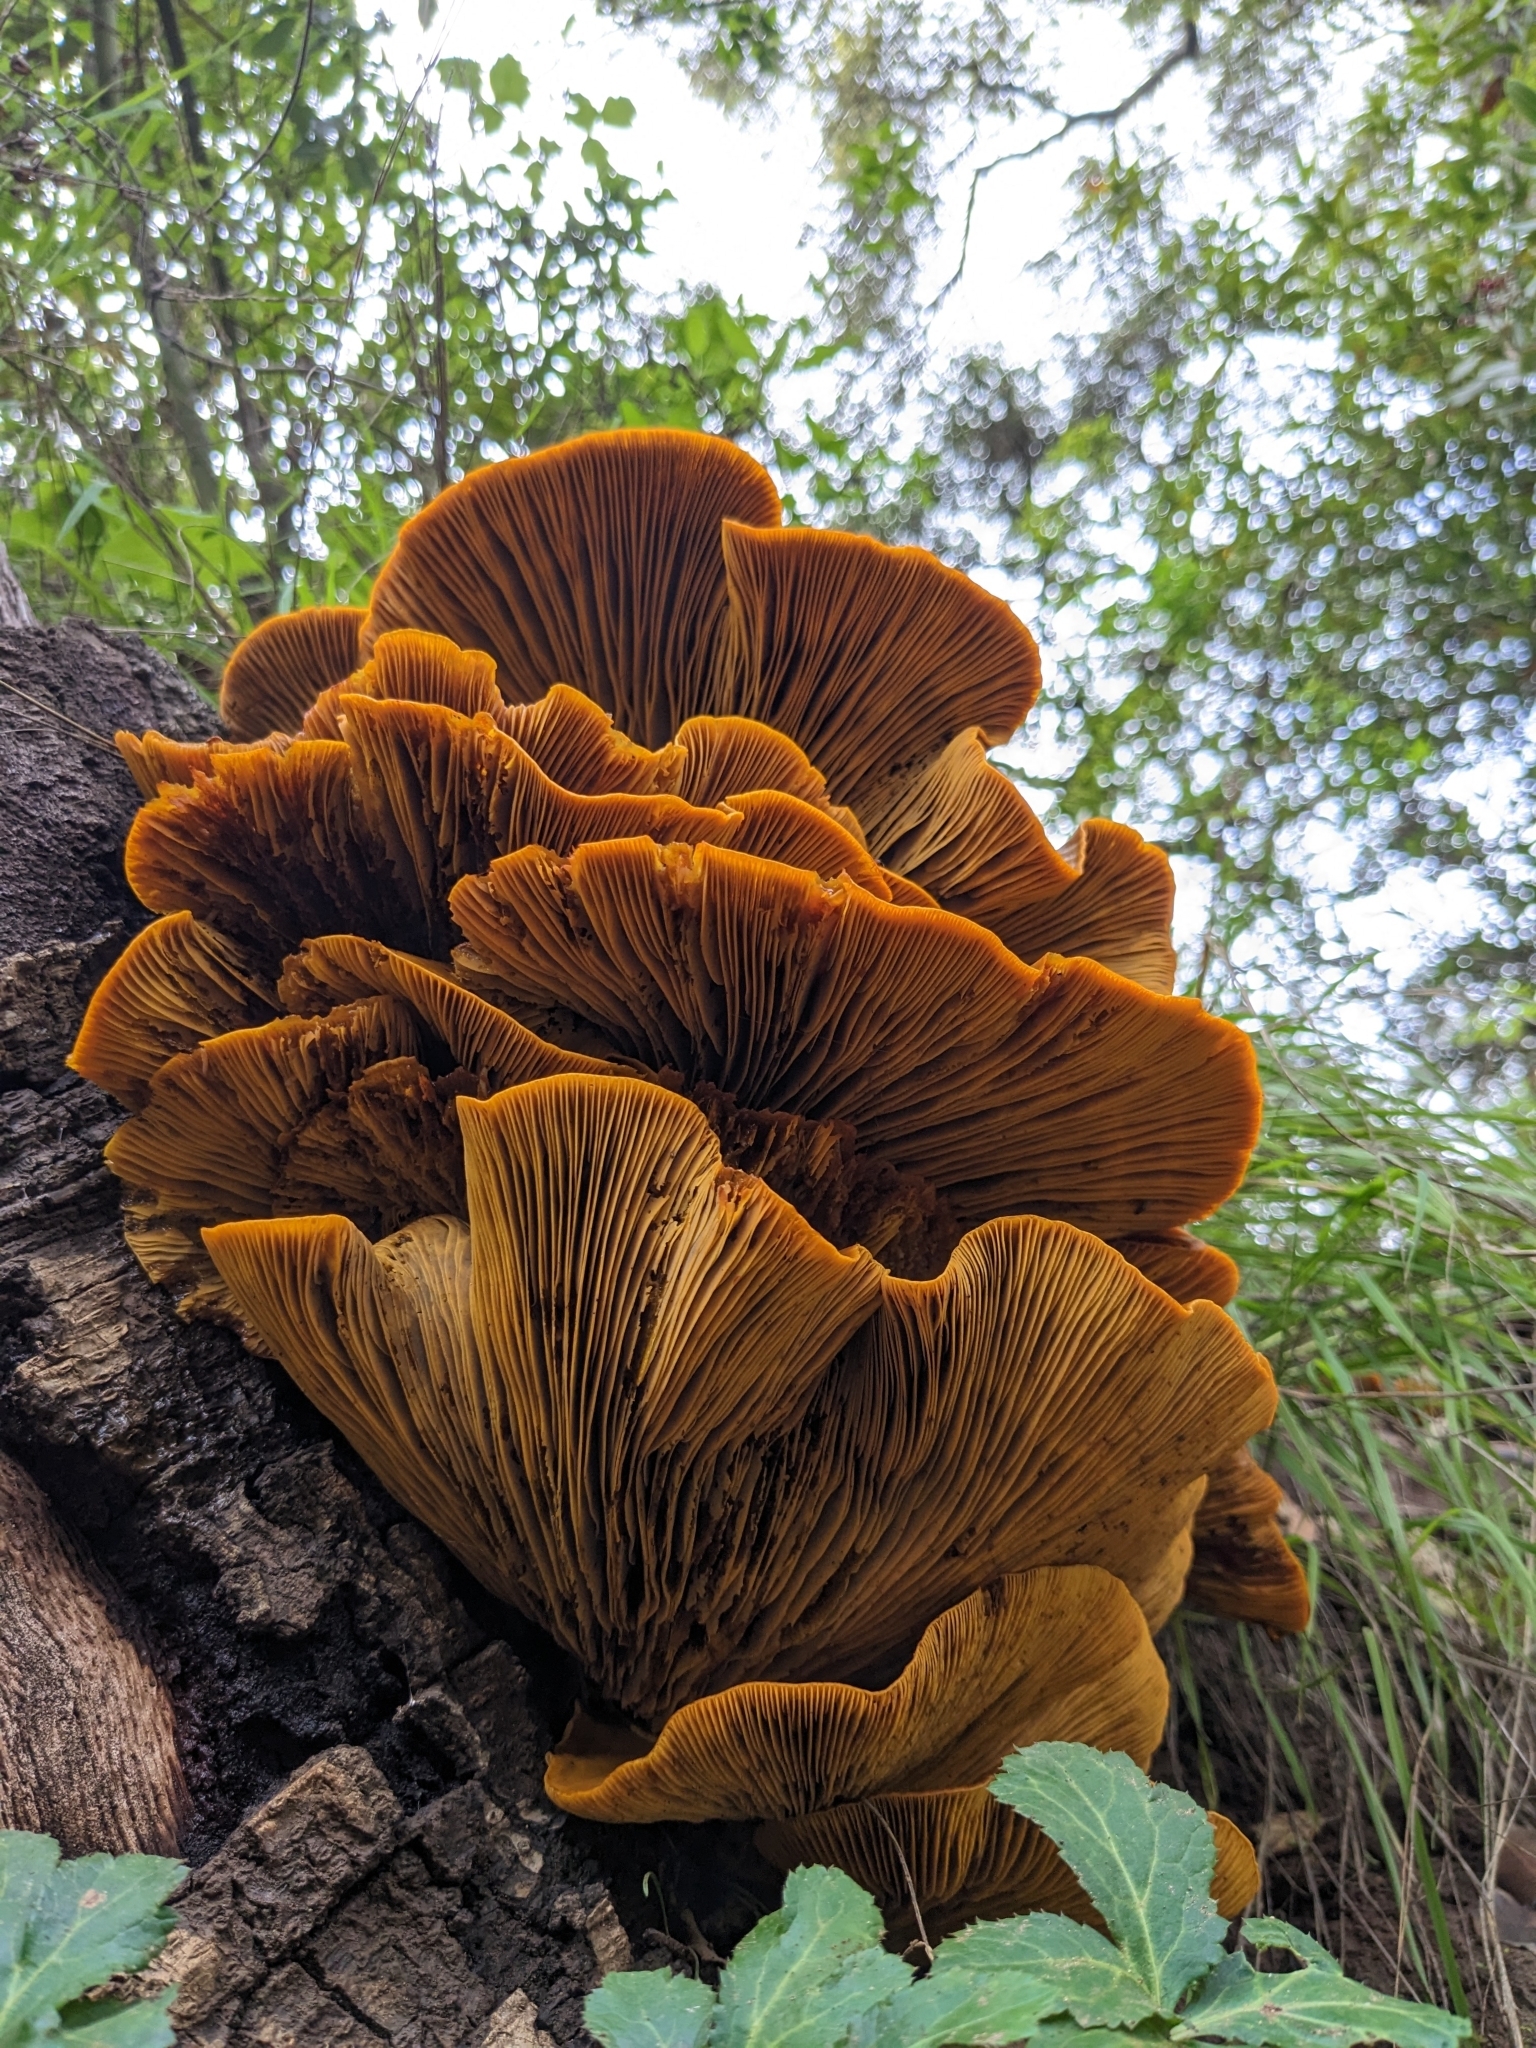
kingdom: Fungi
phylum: Basidiomycota
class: Agaricomycetes
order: Agaricales
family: Omphalotaceae
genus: Omphalotus
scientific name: Omphalotus olivascens
